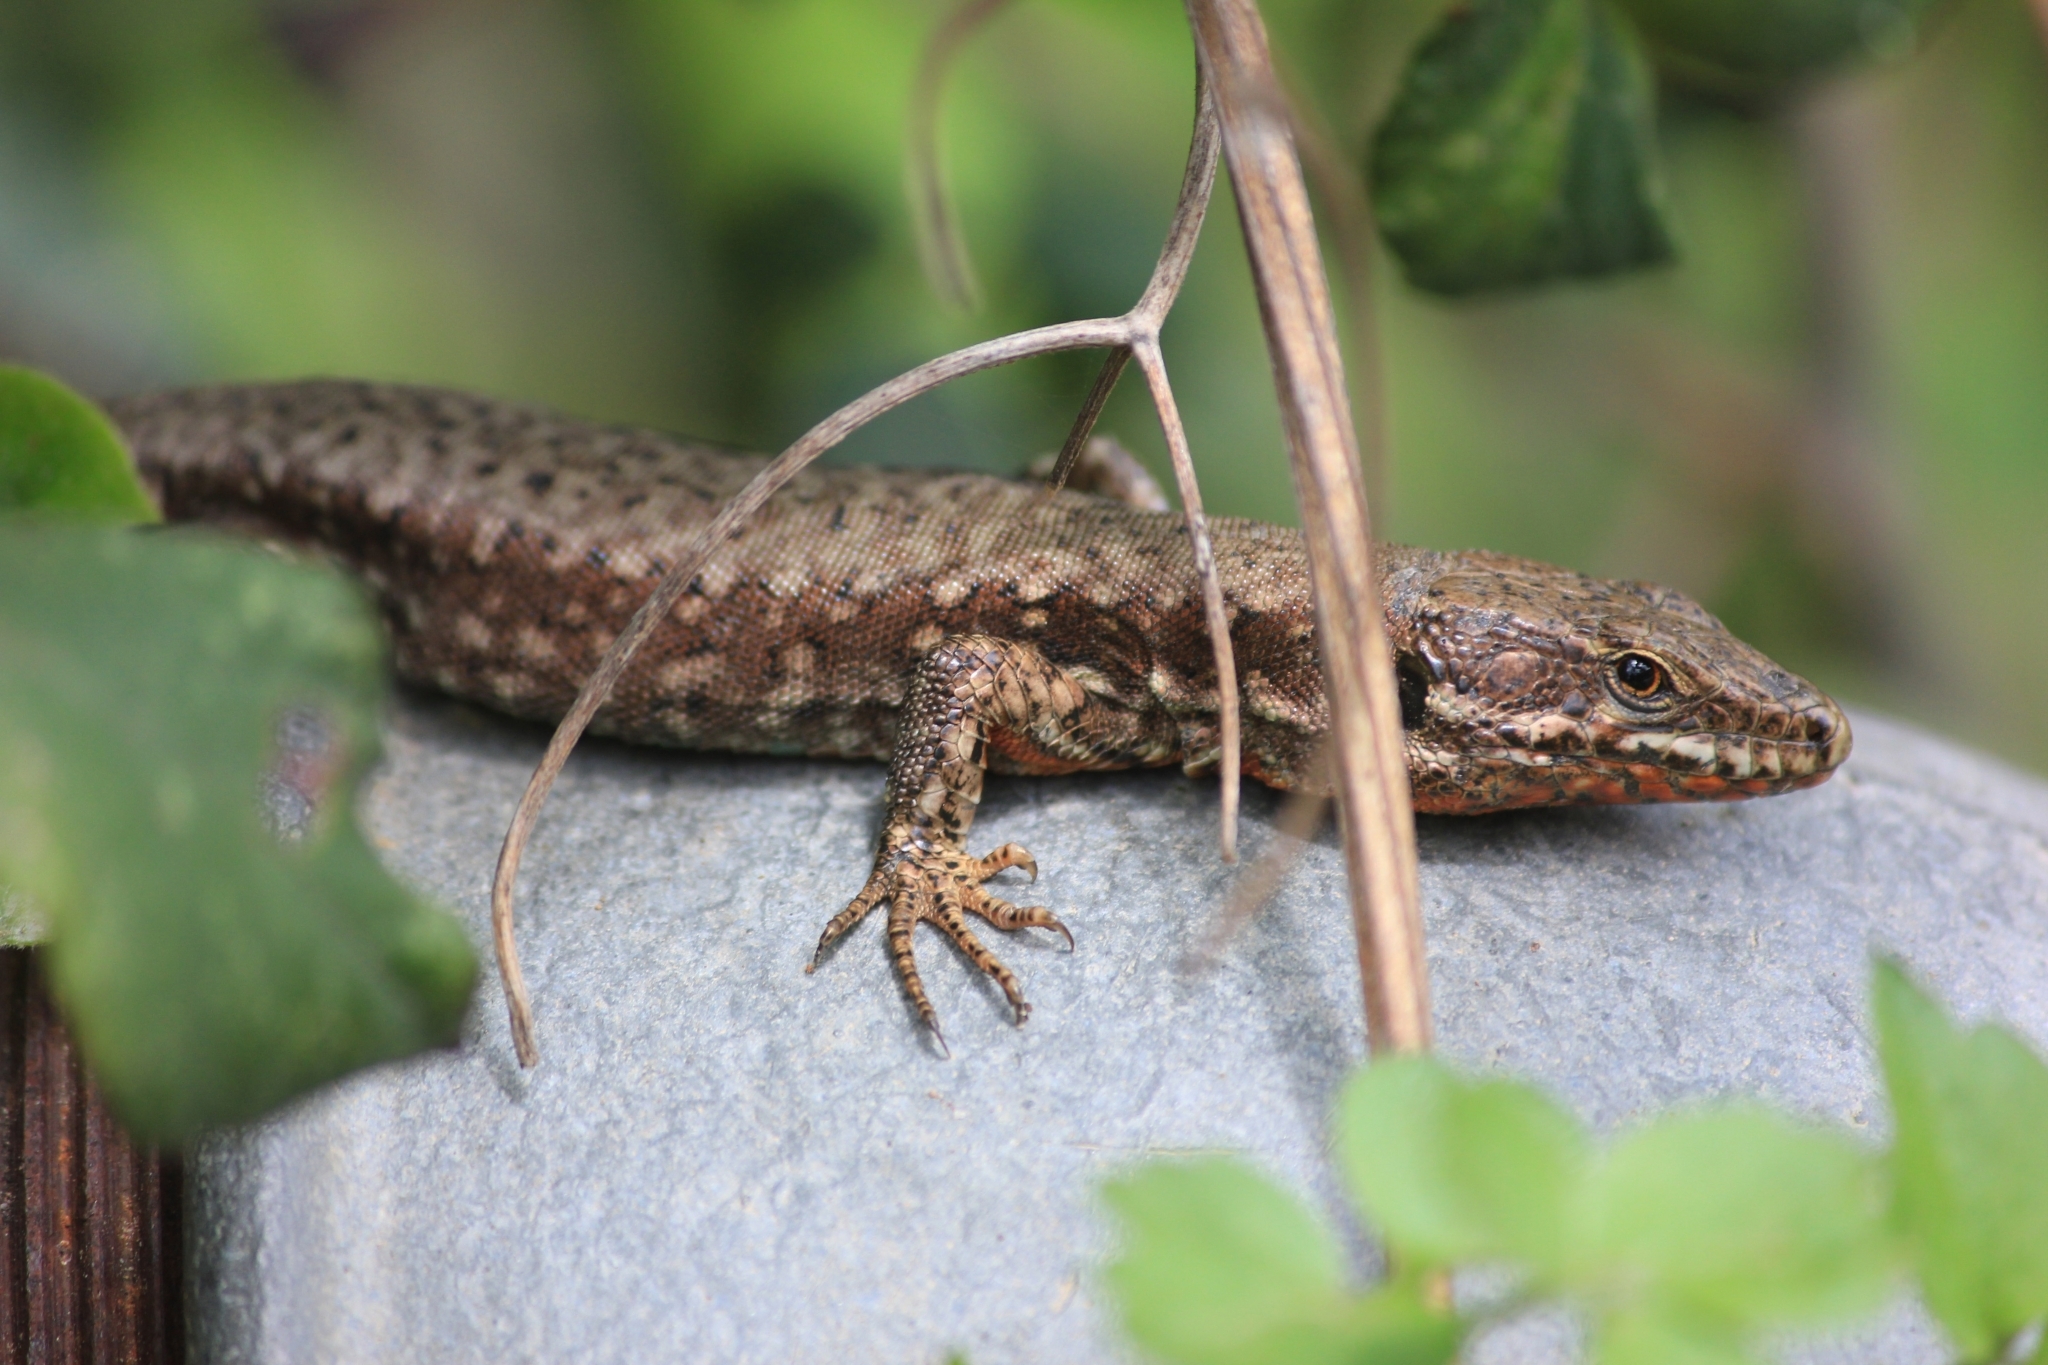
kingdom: Animalia
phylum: Chordata
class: Squamata
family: Lacertidae
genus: Podarcis
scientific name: Podarcis muralis
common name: Common wall lizard
